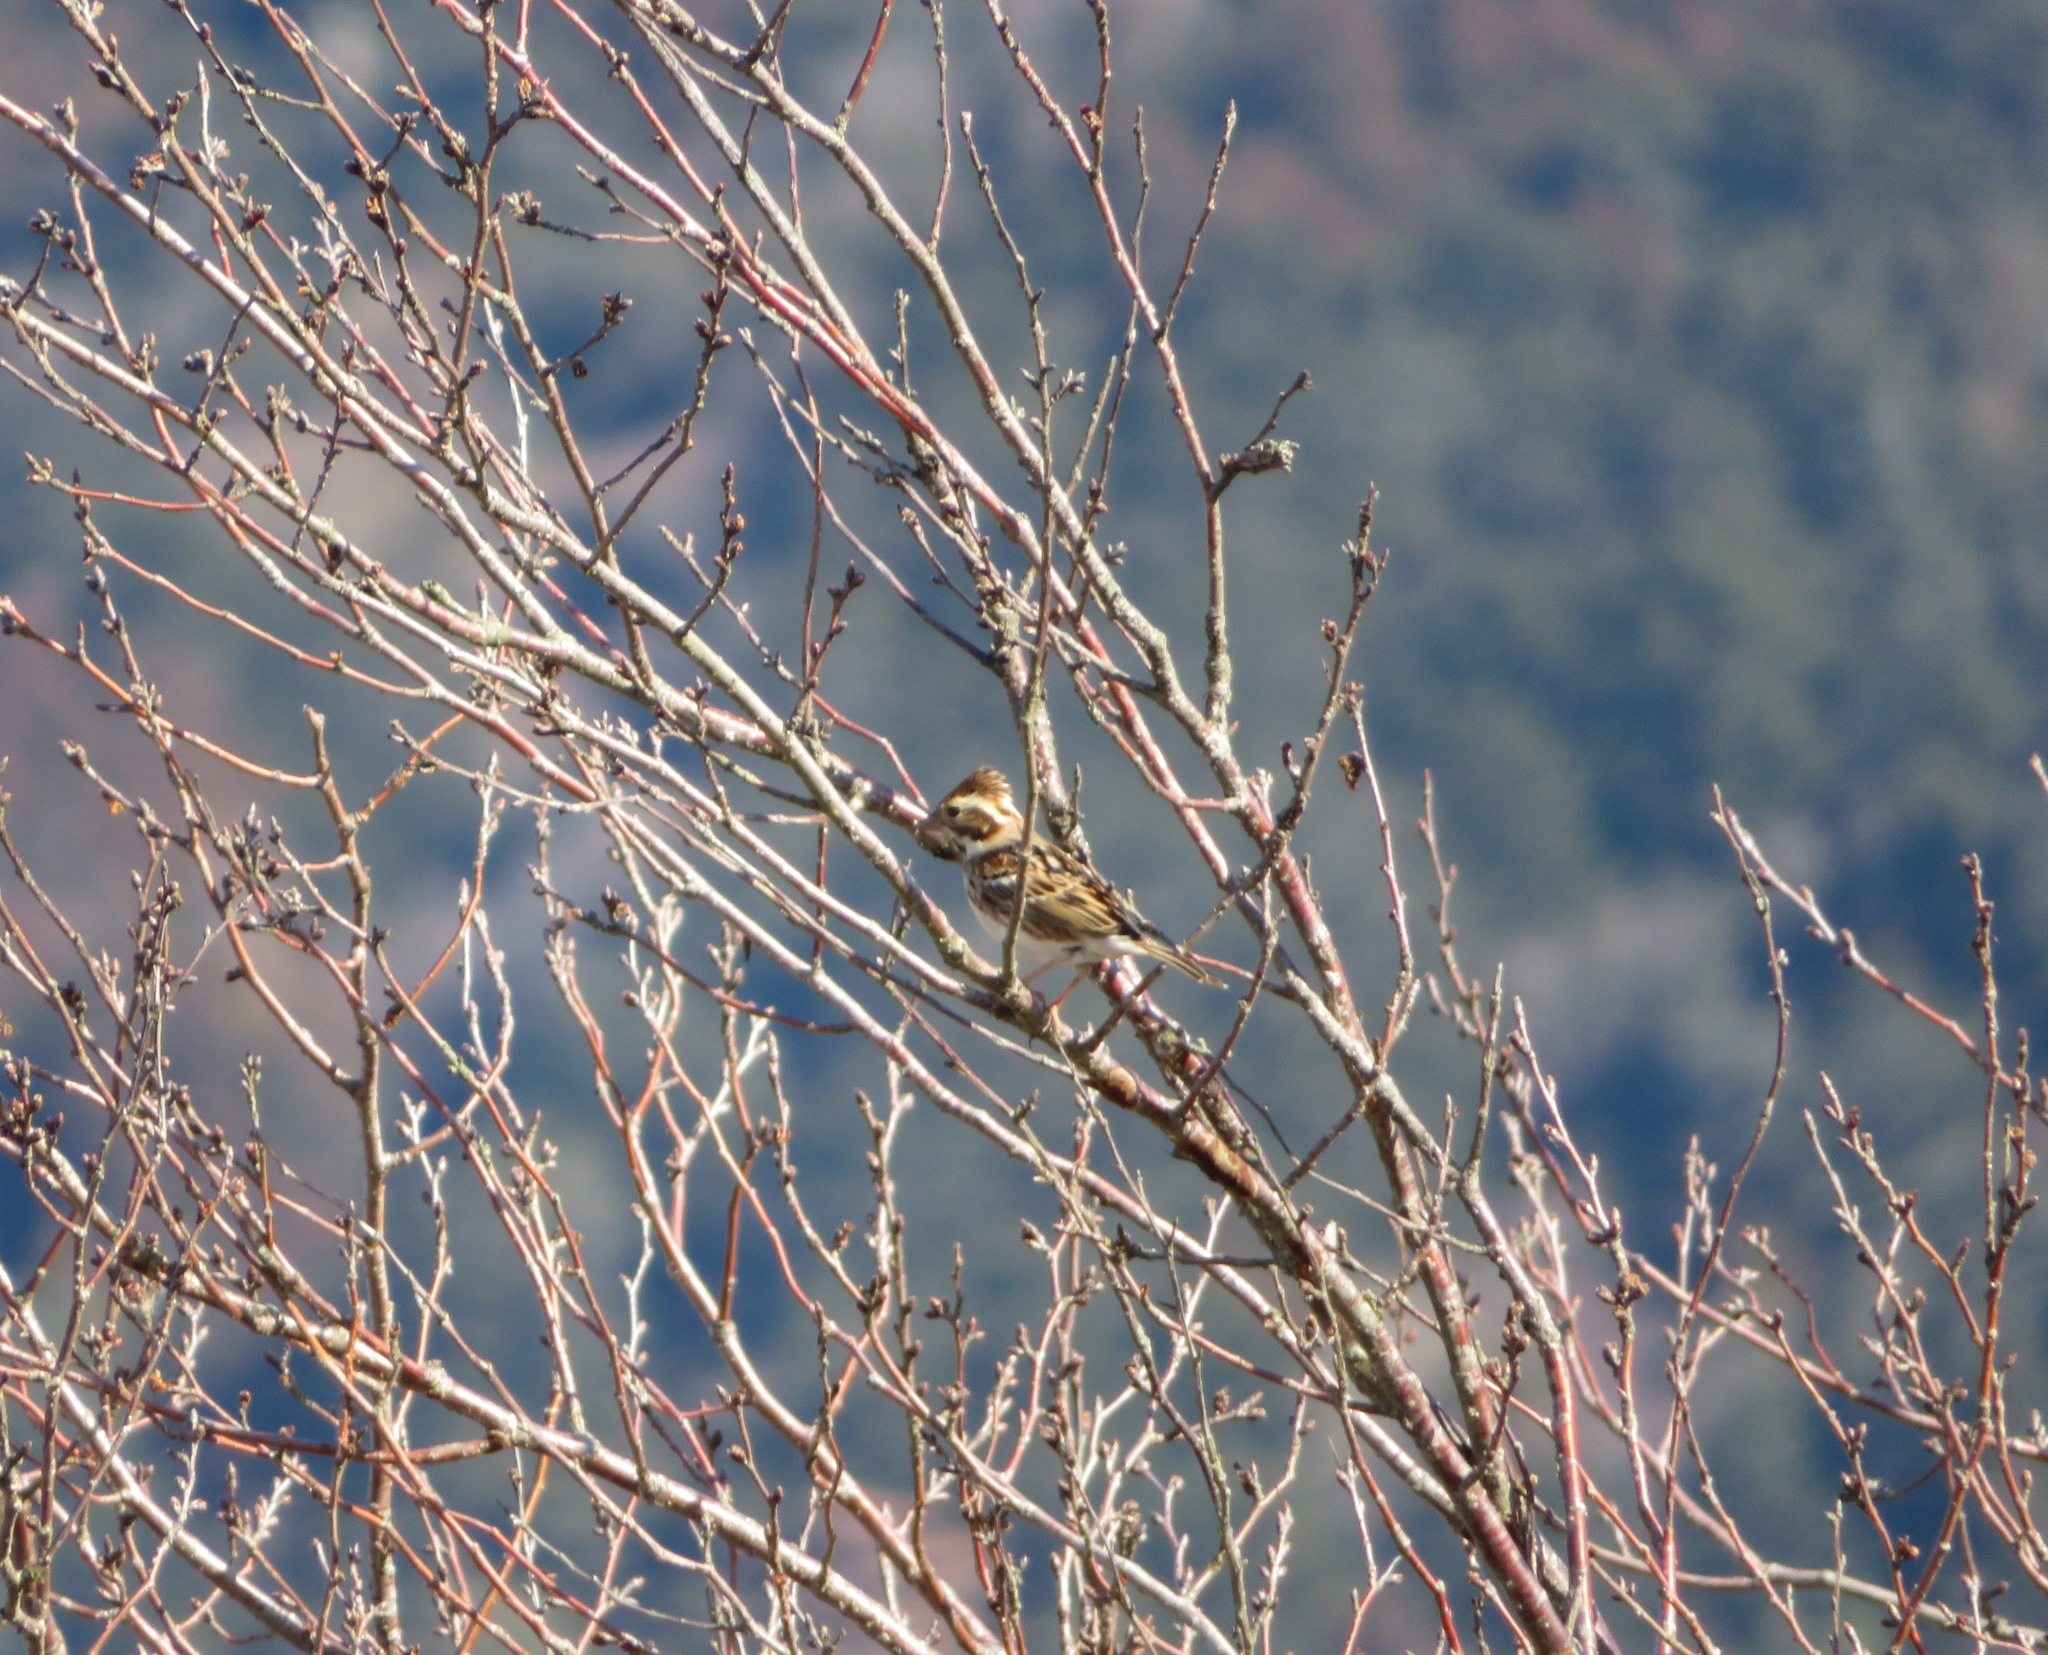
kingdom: Animalia
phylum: Chordata
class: Aves
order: Passeriformes
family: Emberizidae
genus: Emberiza
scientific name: Emberiza rustica
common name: Rustic bunting
